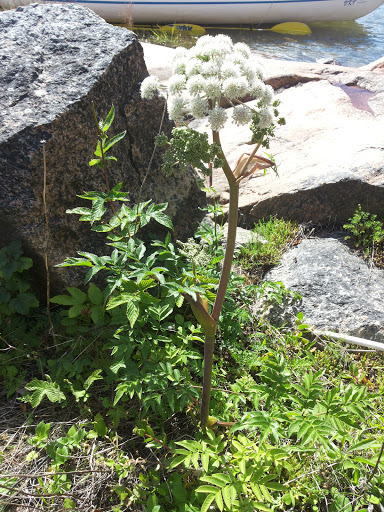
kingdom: Plantae
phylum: Tracheophyta
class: Magnoliopsida
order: Apiales
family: Apiaceae
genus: Angelica
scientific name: Angelica sylvestris
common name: Wild angelica
